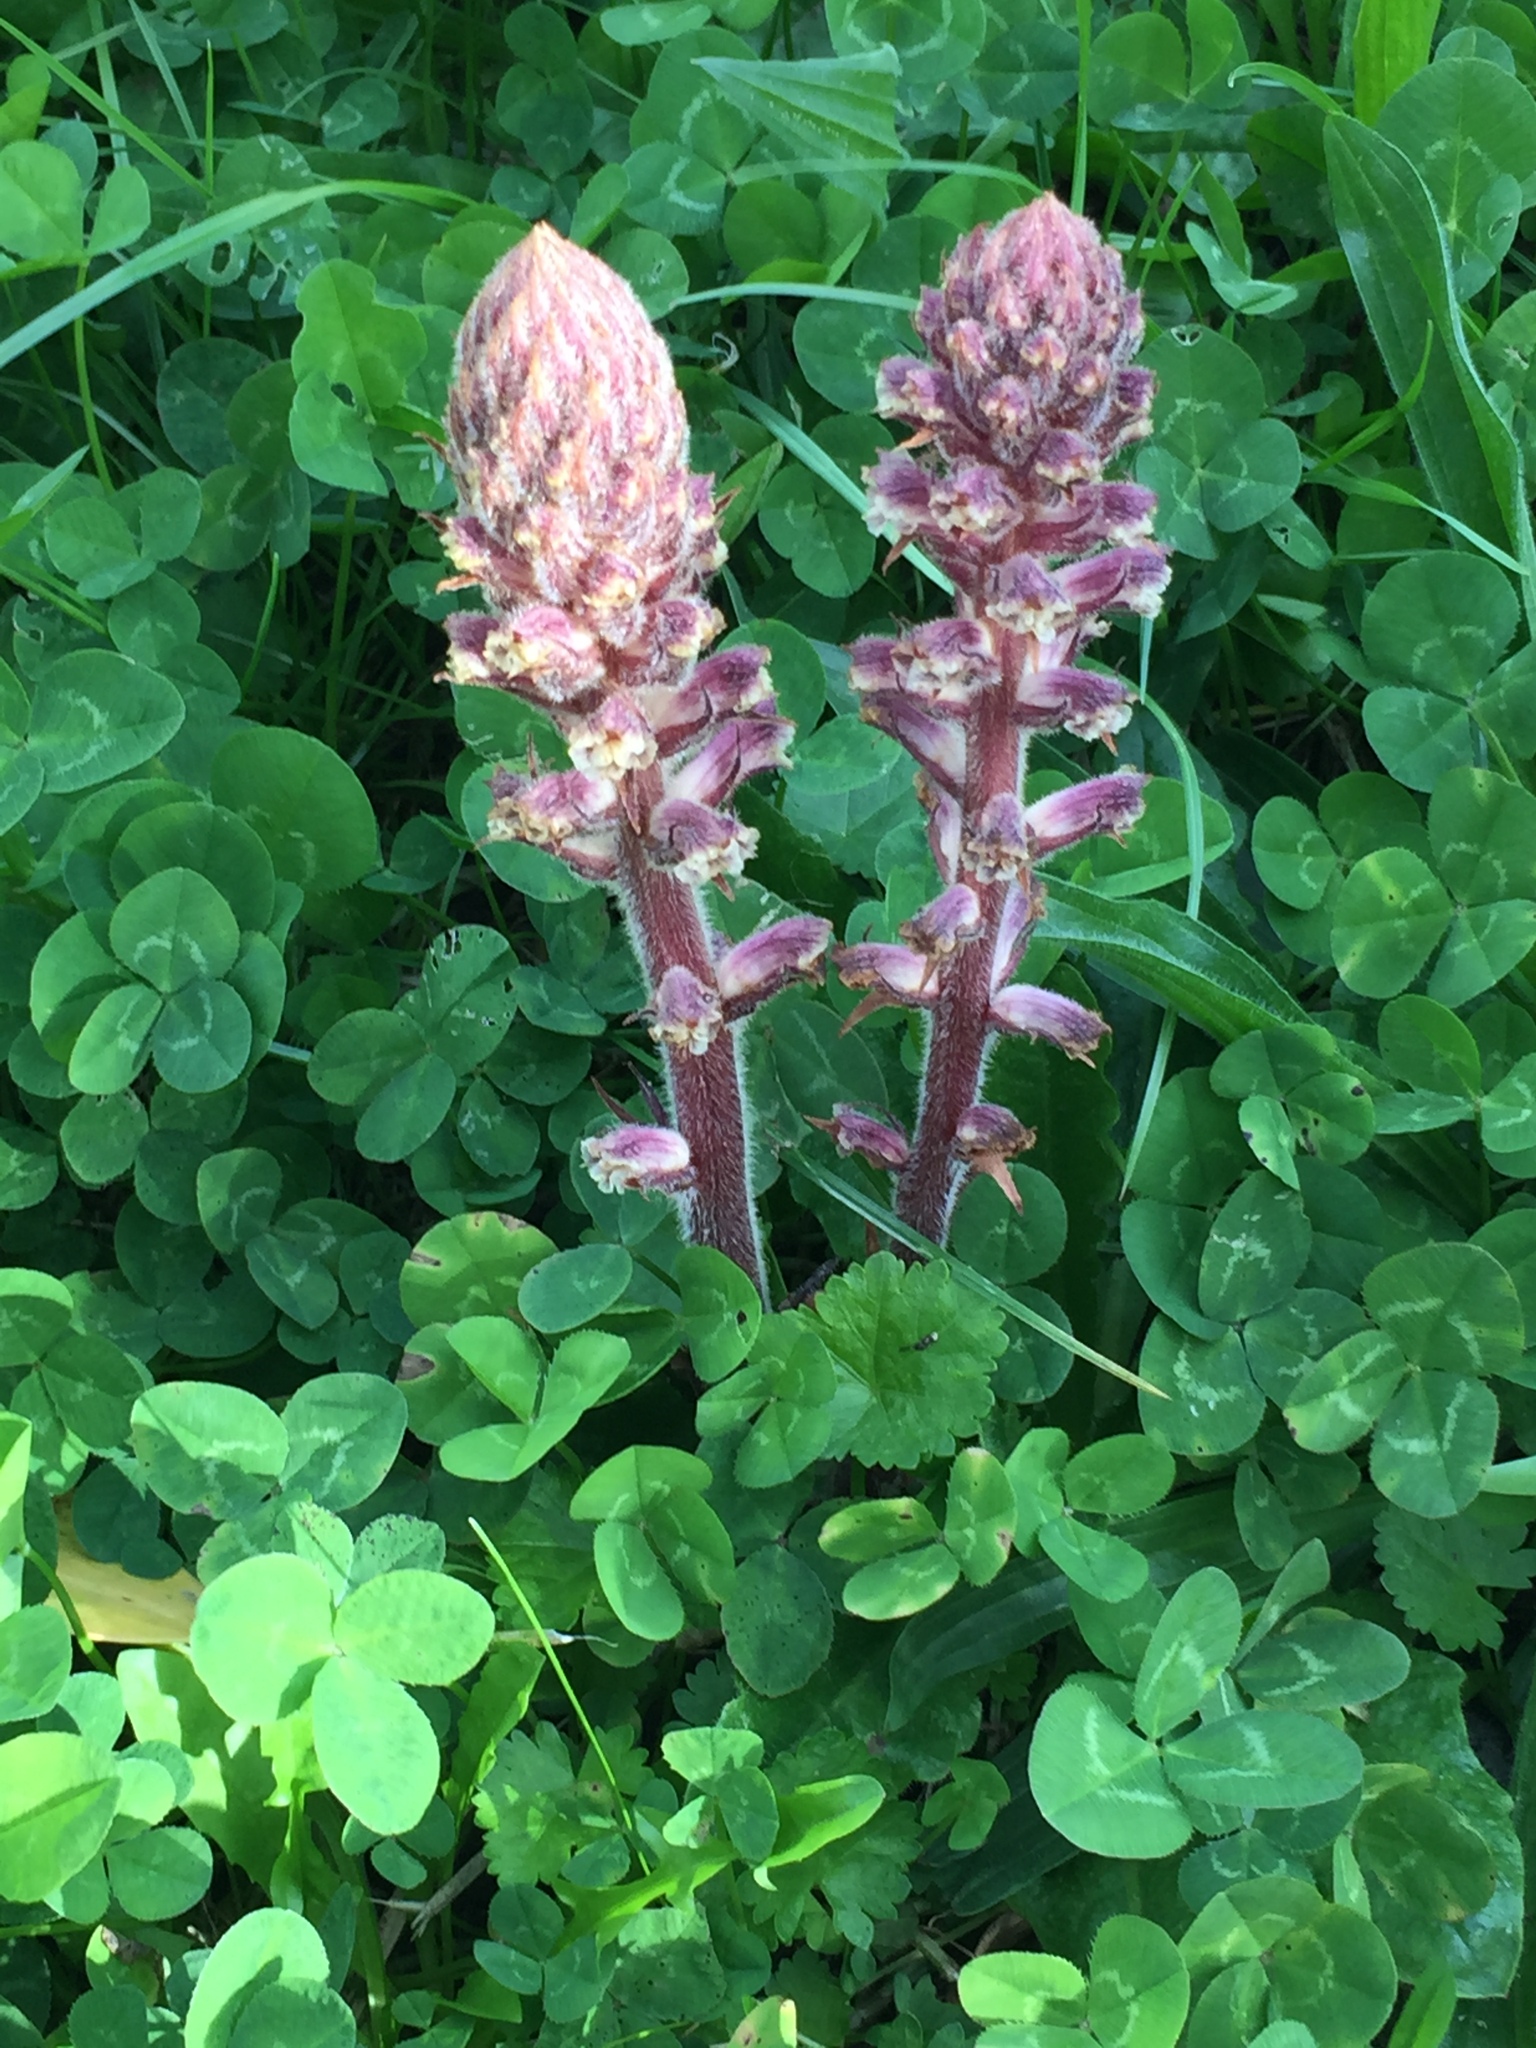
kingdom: Plantae
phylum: Tracheophyta
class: Magnoliopsida
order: Lamiales
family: Orobanchaceae
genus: Orobanche
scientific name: Orobanche minor
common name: Common broomrape
